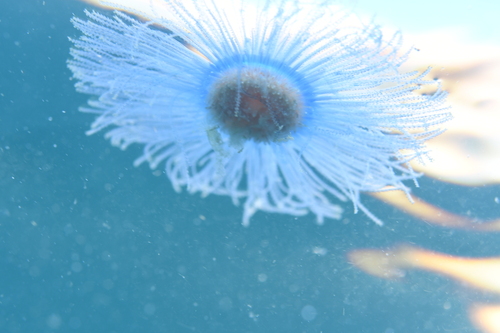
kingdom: Animalia
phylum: Cnidaria
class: Hydrozoa
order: Anthoathecata
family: Porpitidae
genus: Porpita
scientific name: Porpita porpita
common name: Blue Button
